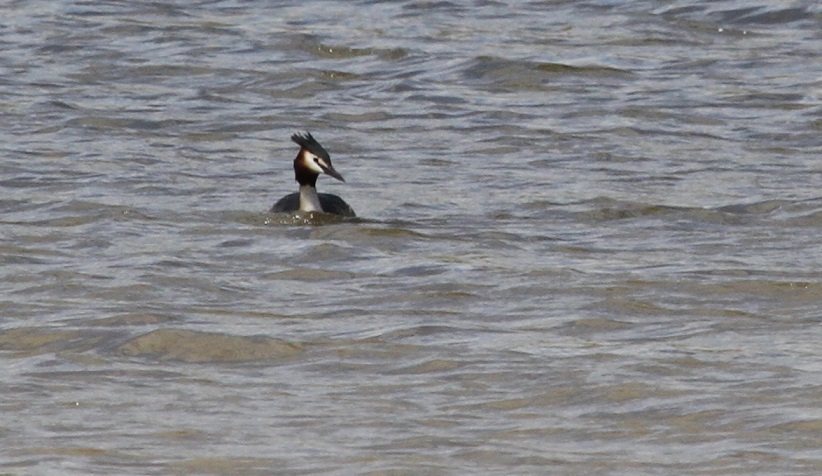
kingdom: Animalia
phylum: Chordata
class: Aves
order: Podicipediformes
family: Podicipedidae
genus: Podiceps
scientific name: Podiceps cristatus
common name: Great crested grebe
